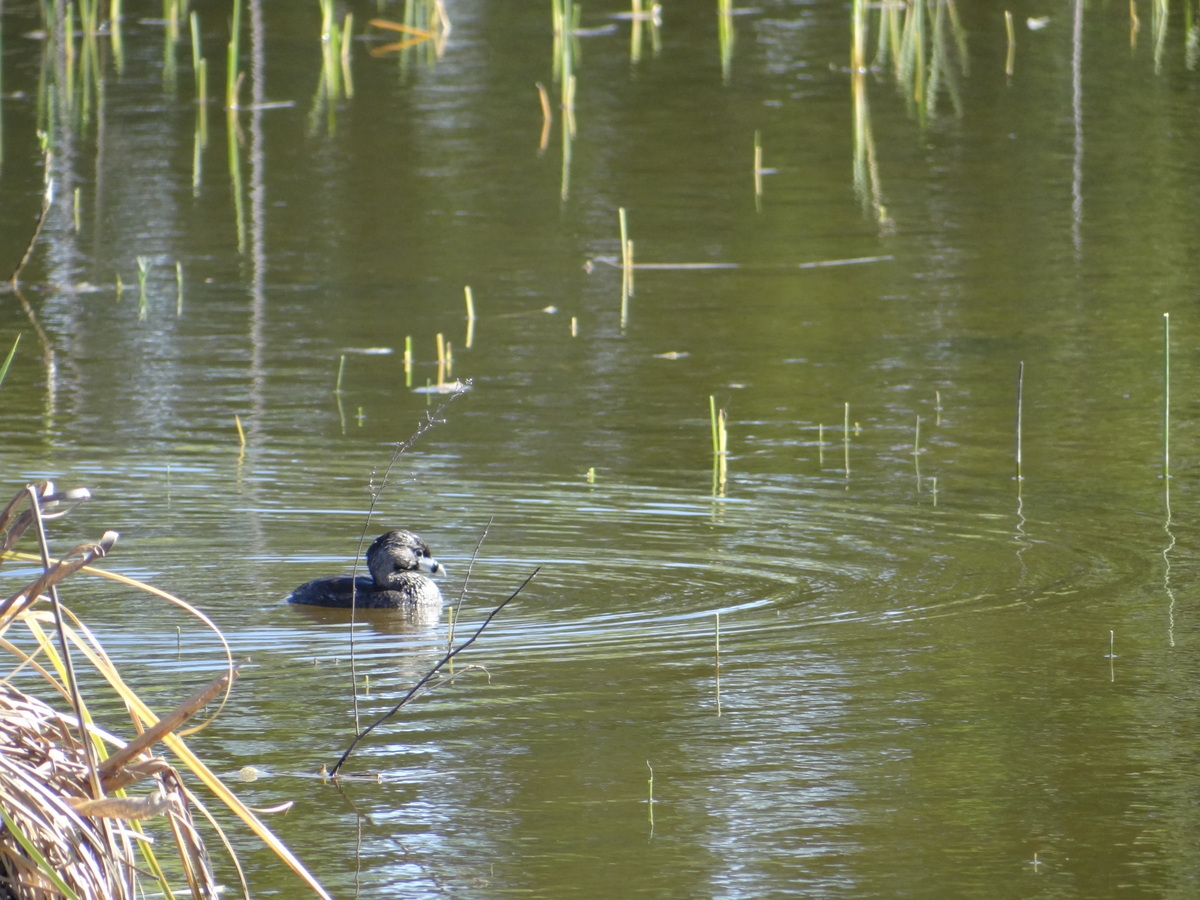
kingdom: Animalia
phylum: Chordata
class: Aves
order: Podicipediformes
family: Podicipedidae
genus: Podilymbus
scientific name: Podilymbus podiceps
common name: Pied-billed grebe
